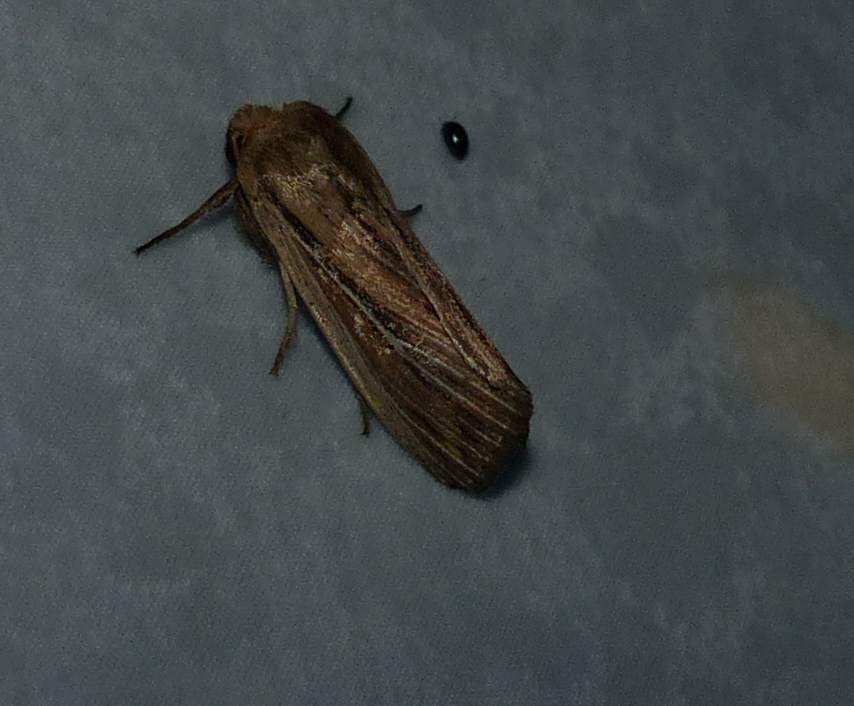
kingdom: Animalia
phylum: Arthropoda
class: Insecta
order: Lepidoptera
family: Noctuidae
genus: Leucania
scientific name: Leucania commoides
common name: Two-lined wainscot
